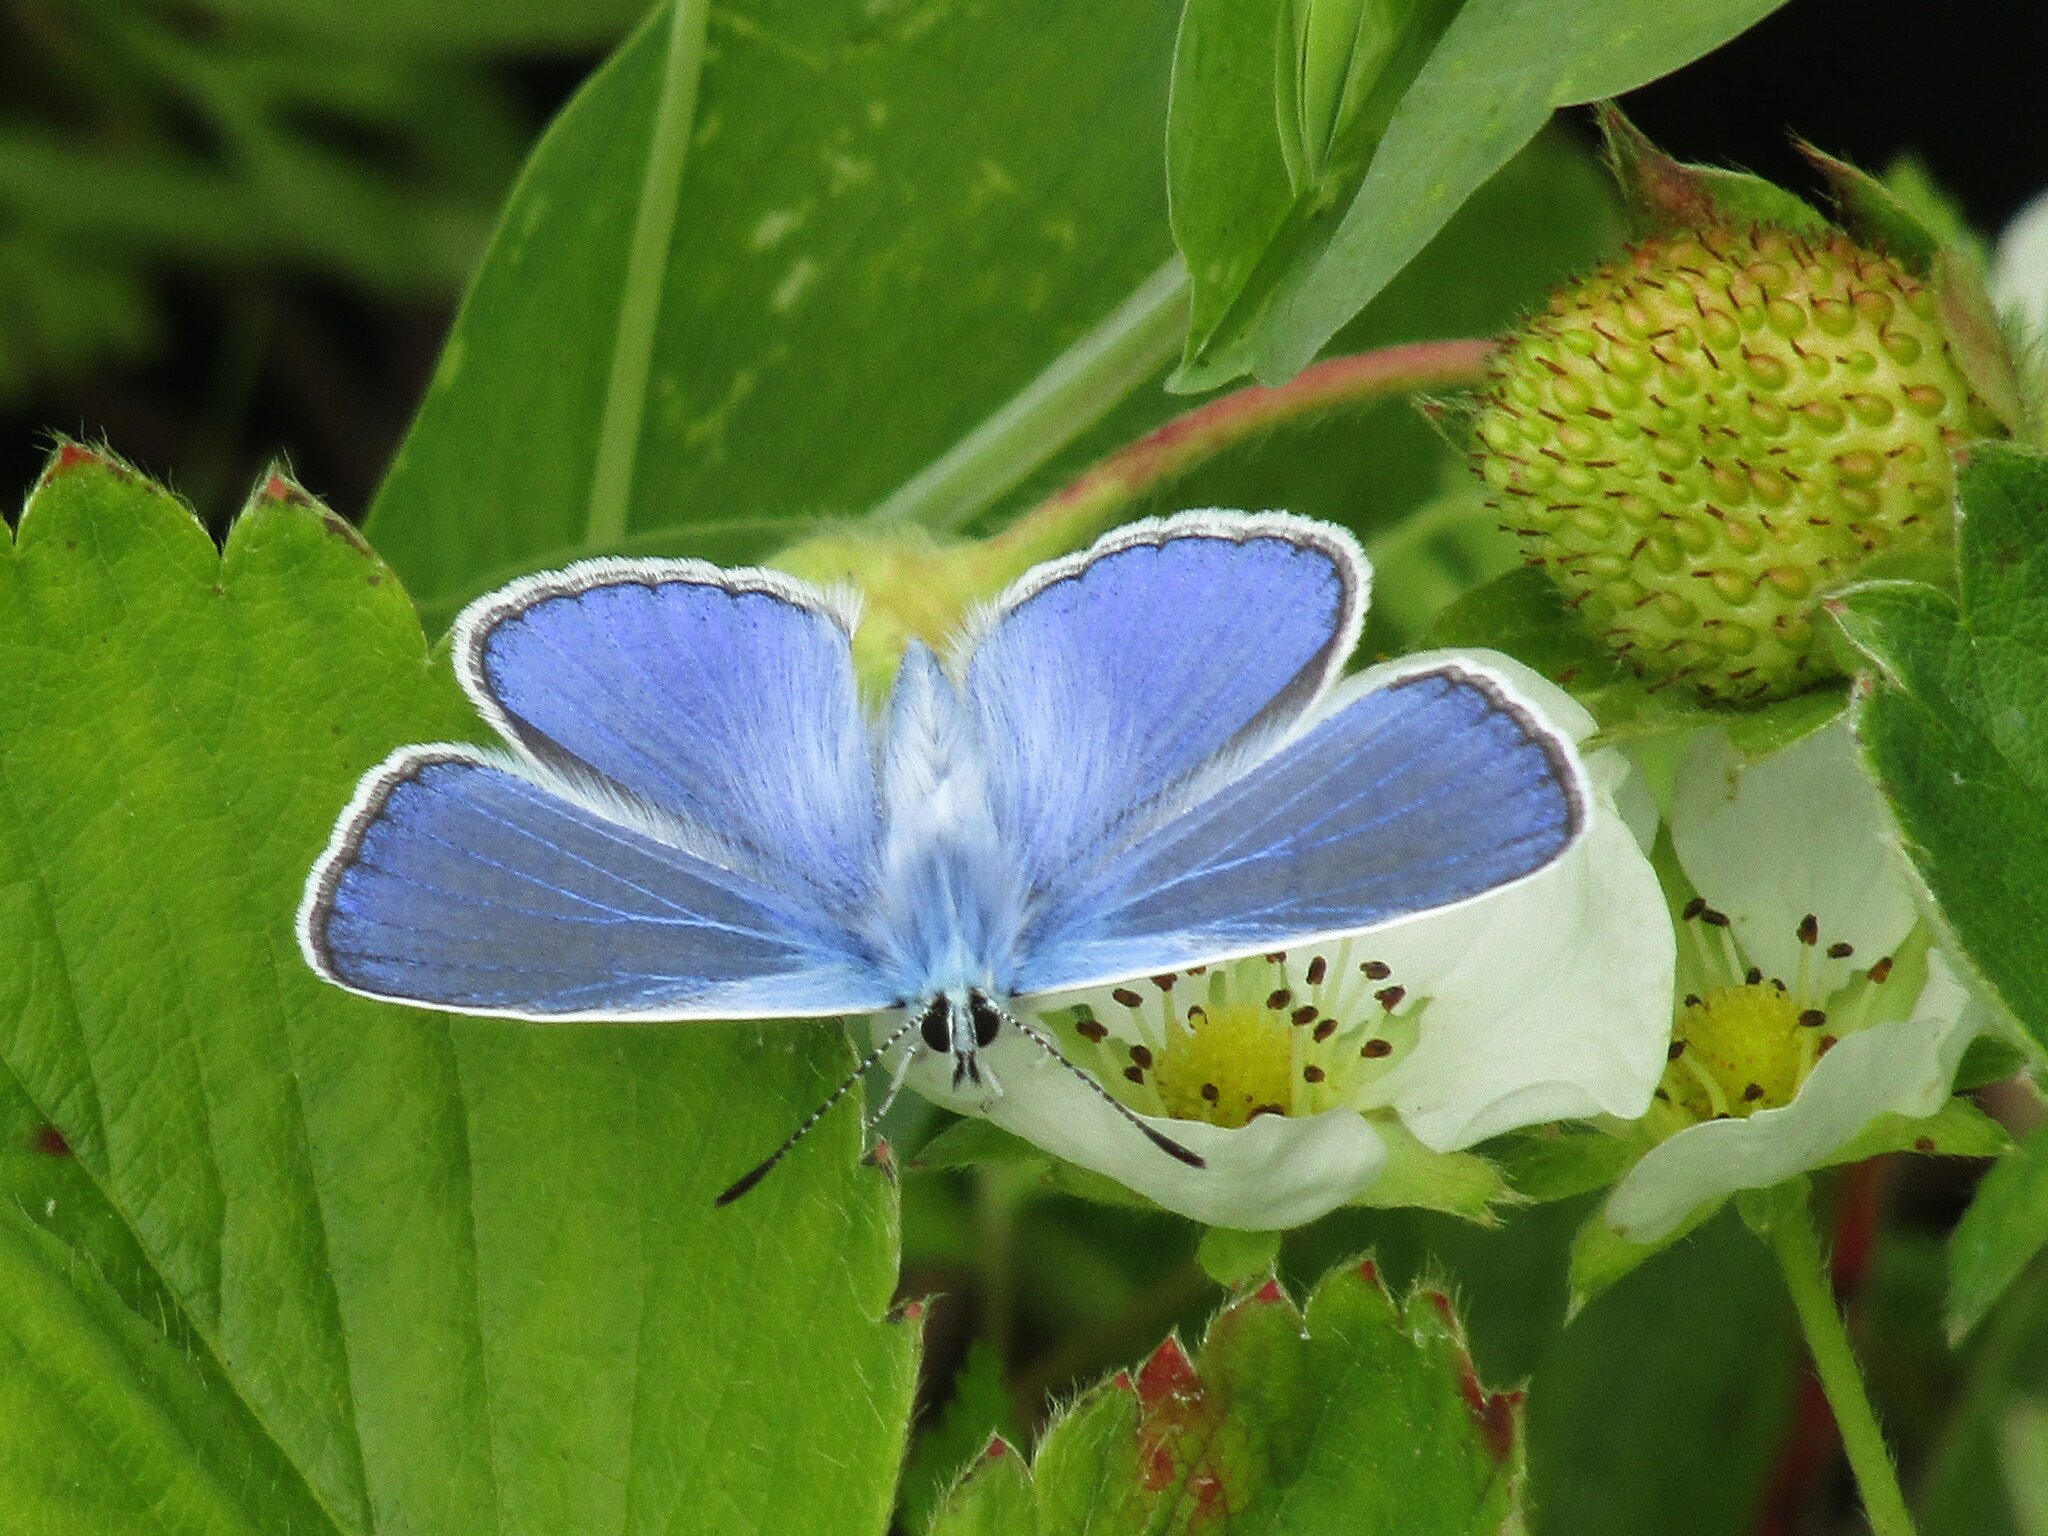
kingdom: Animalia
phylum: Arthropoda
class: Insecta
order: Lepidoptera
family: Lycaenidae
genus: Polyommatus
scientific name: Polyommatus icarus
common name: Common blue
